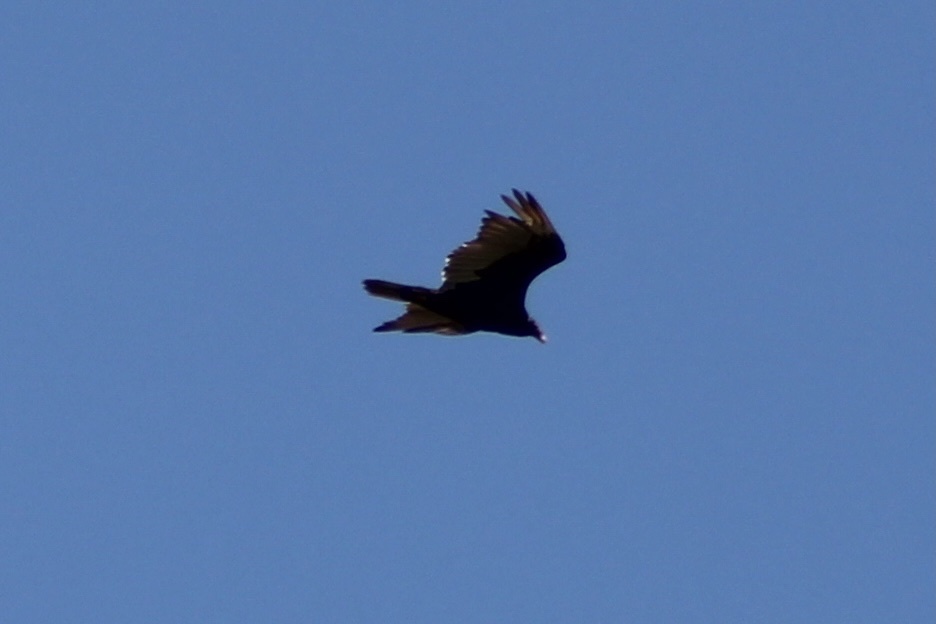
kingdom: Animalia
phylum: Chordata
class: Aves
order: Accipitriformes
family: Cathartidae
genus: Cathartes
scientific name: Cathartes aura
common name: Turkey vulture
